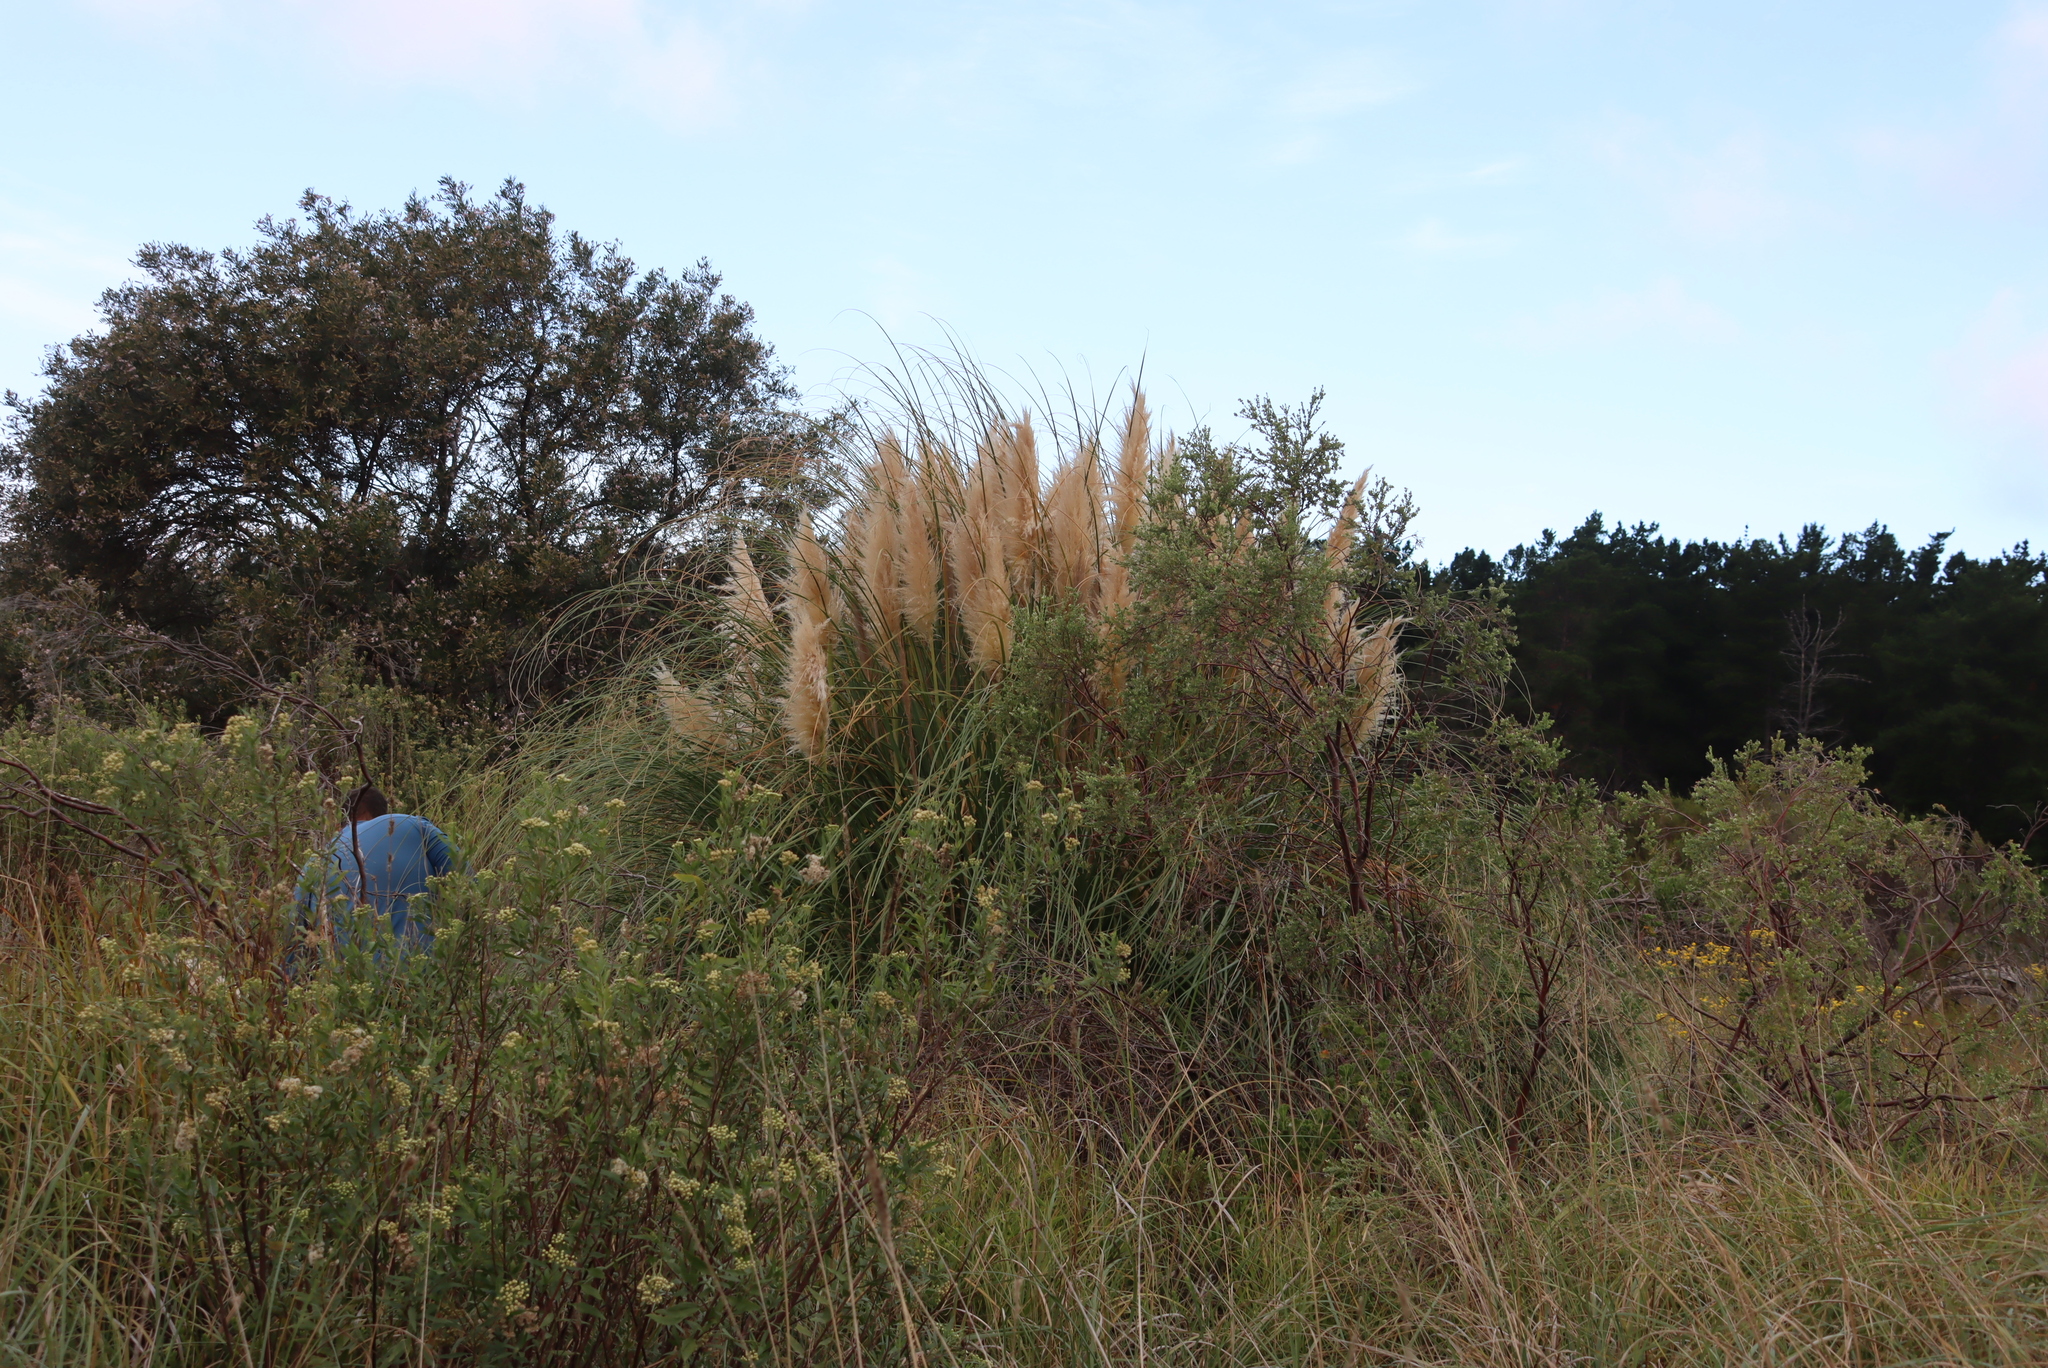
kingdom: Plantae
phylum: Tracheophyta
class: Liliopsida
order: Poales
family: Poaceae
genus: Cortaderia
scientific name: Cortaderia selloana
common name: Uruguayan pampas grass
